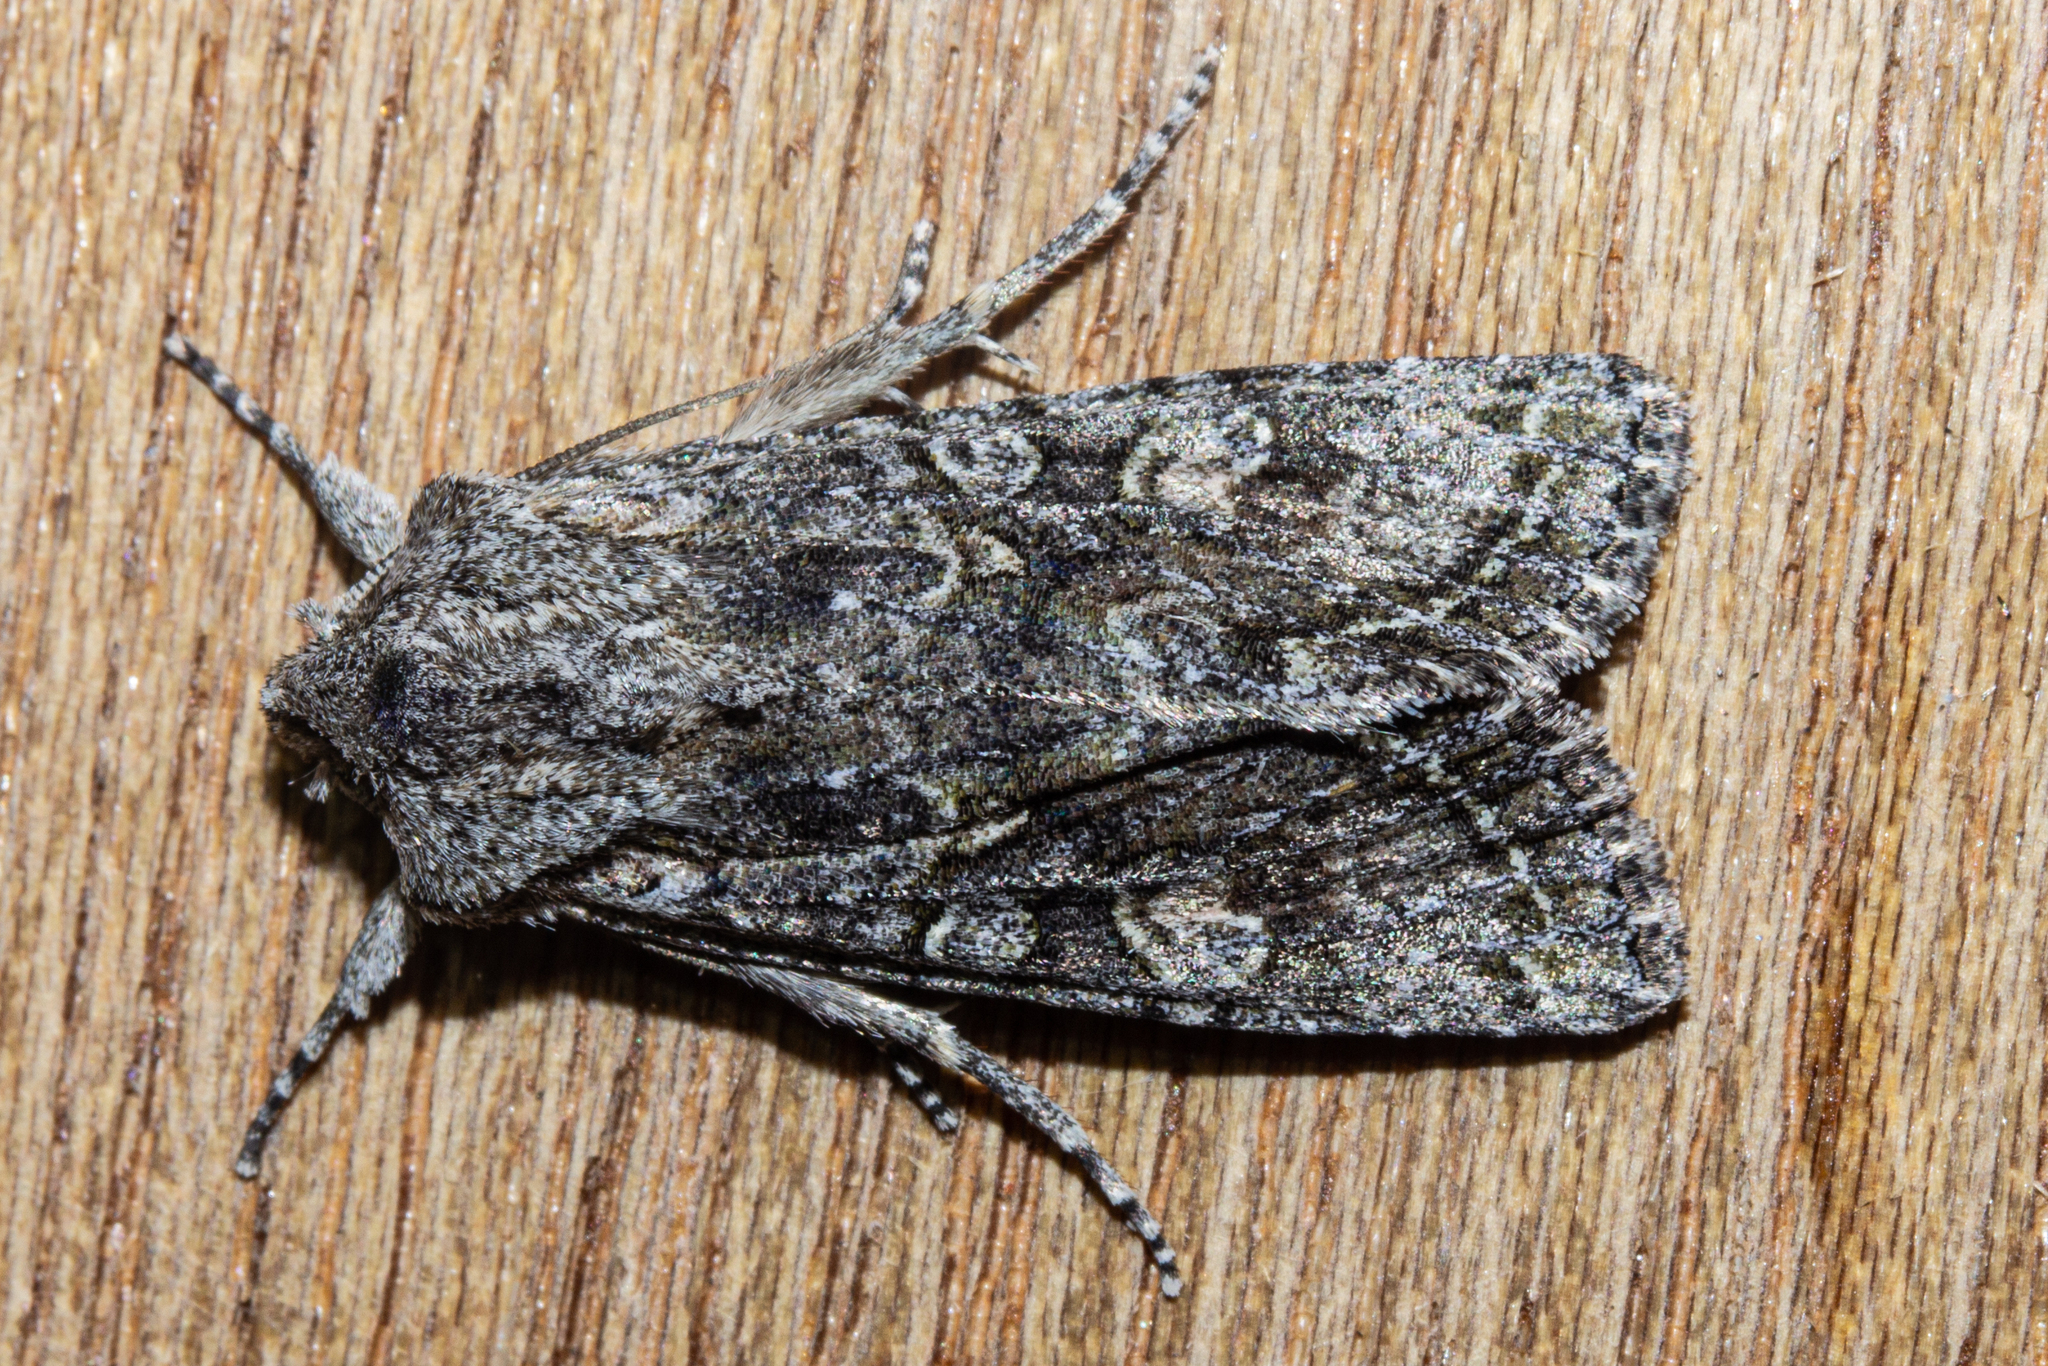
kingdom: Animalia
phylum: Arthropoda
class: Insecta
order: Lepidoptera
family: Noctuidae
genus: Ichneutica
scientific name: Ichneutica mutans
